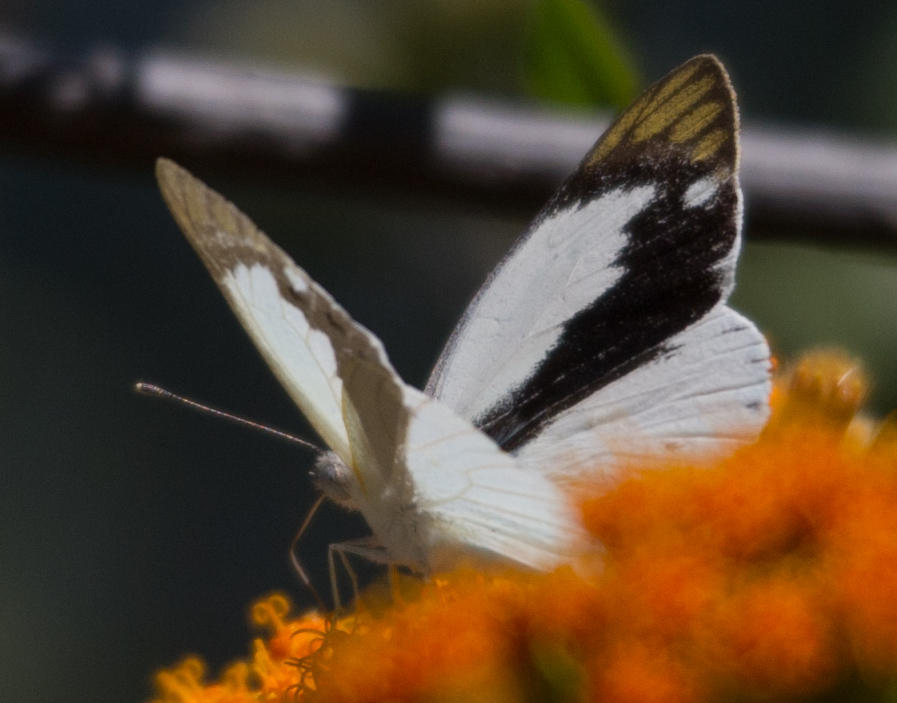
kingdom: Animalia
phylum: Arthropoda
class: Insecta
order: Lepidoptera
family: Pieridae
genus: Colotis
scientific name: Colotis eris
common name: Banded gold tip
